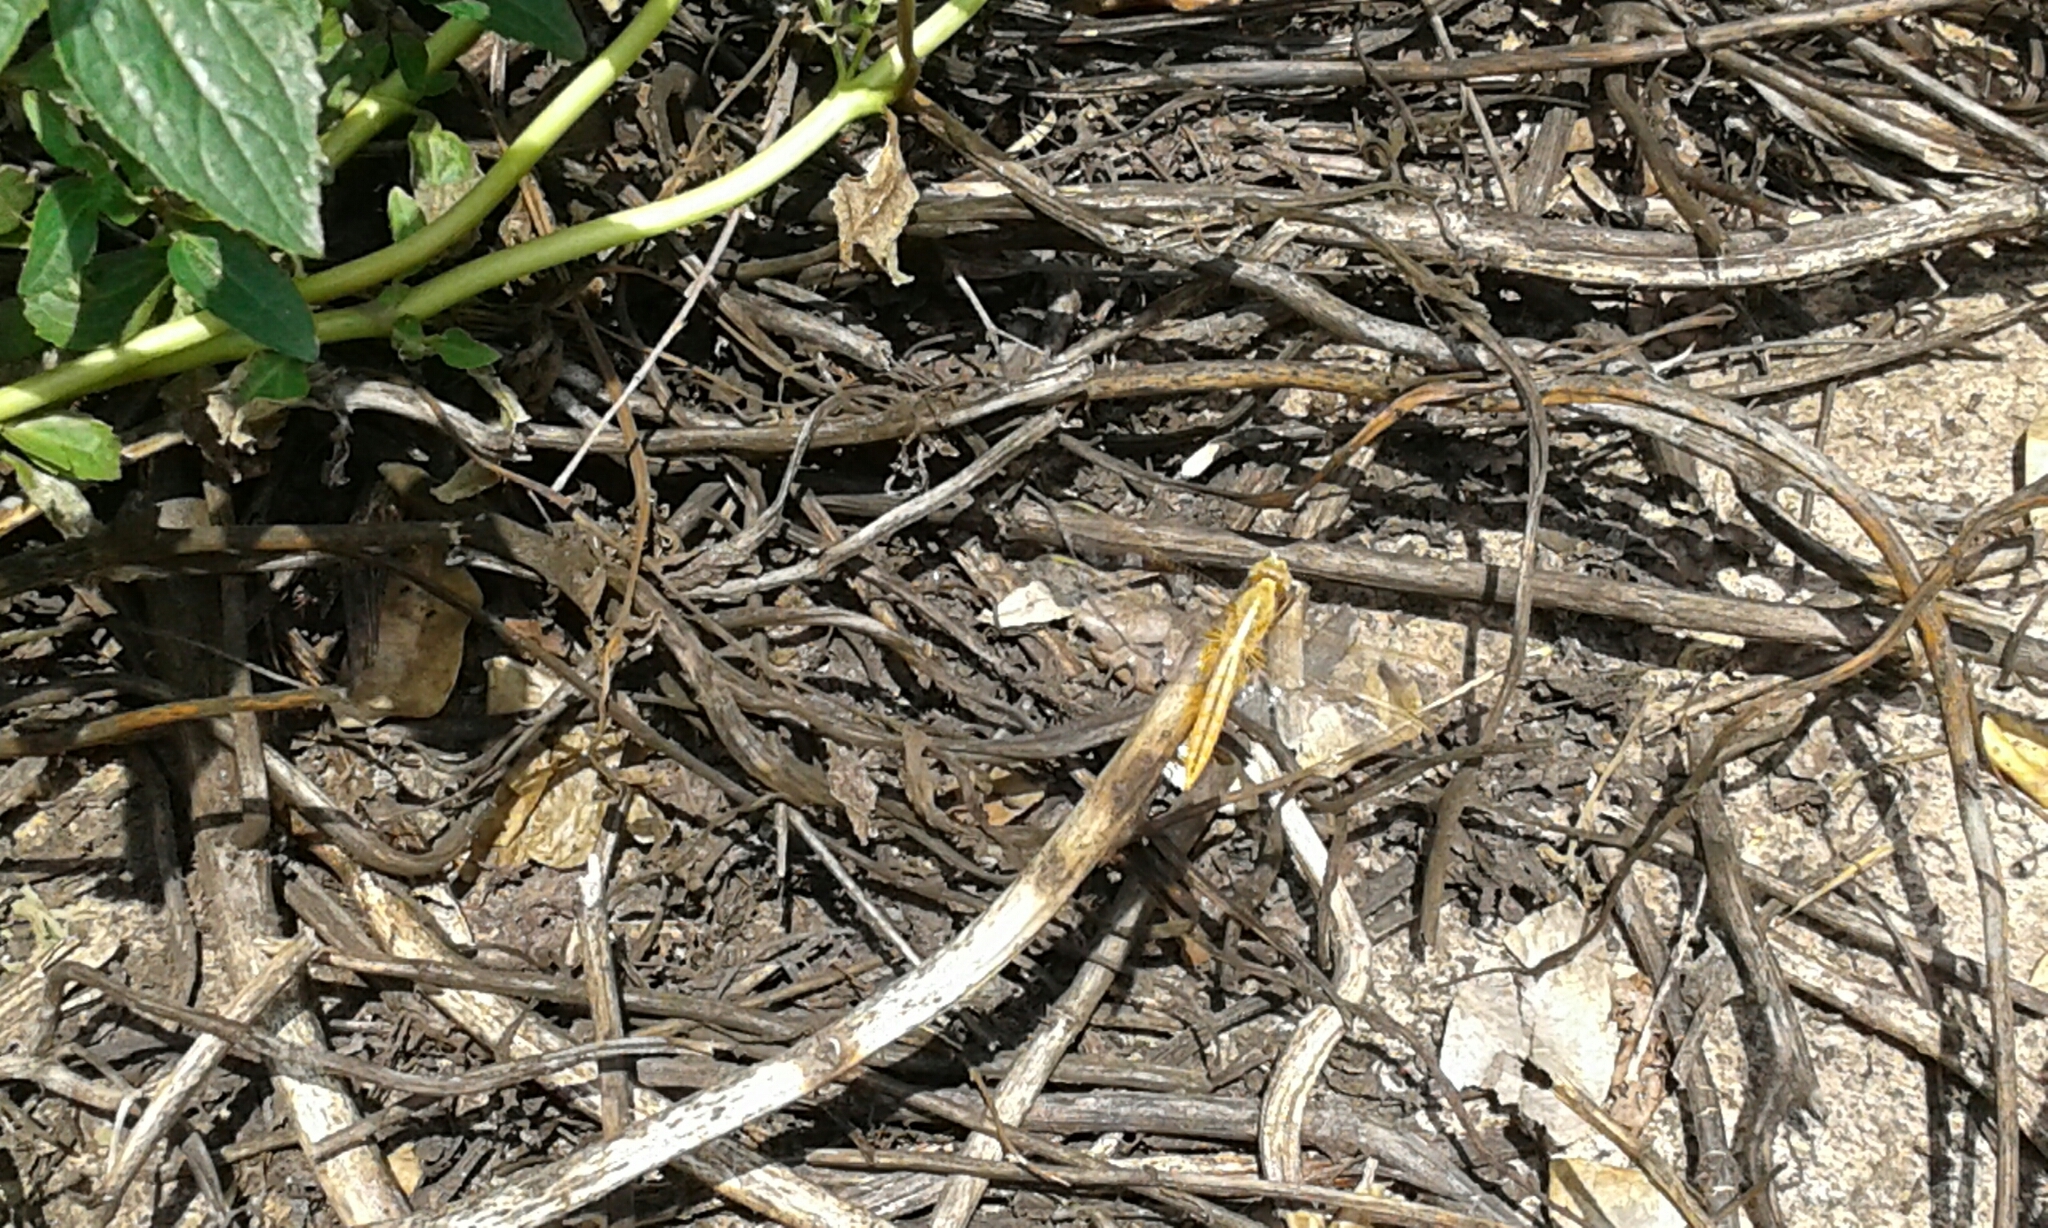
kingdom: Animalia
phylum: Arthropoda
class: Insecta
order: Odonata
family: Libellulidae
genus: Crocothemis
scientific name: Crocothemis erythraea
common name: Scarlet dragonfly
